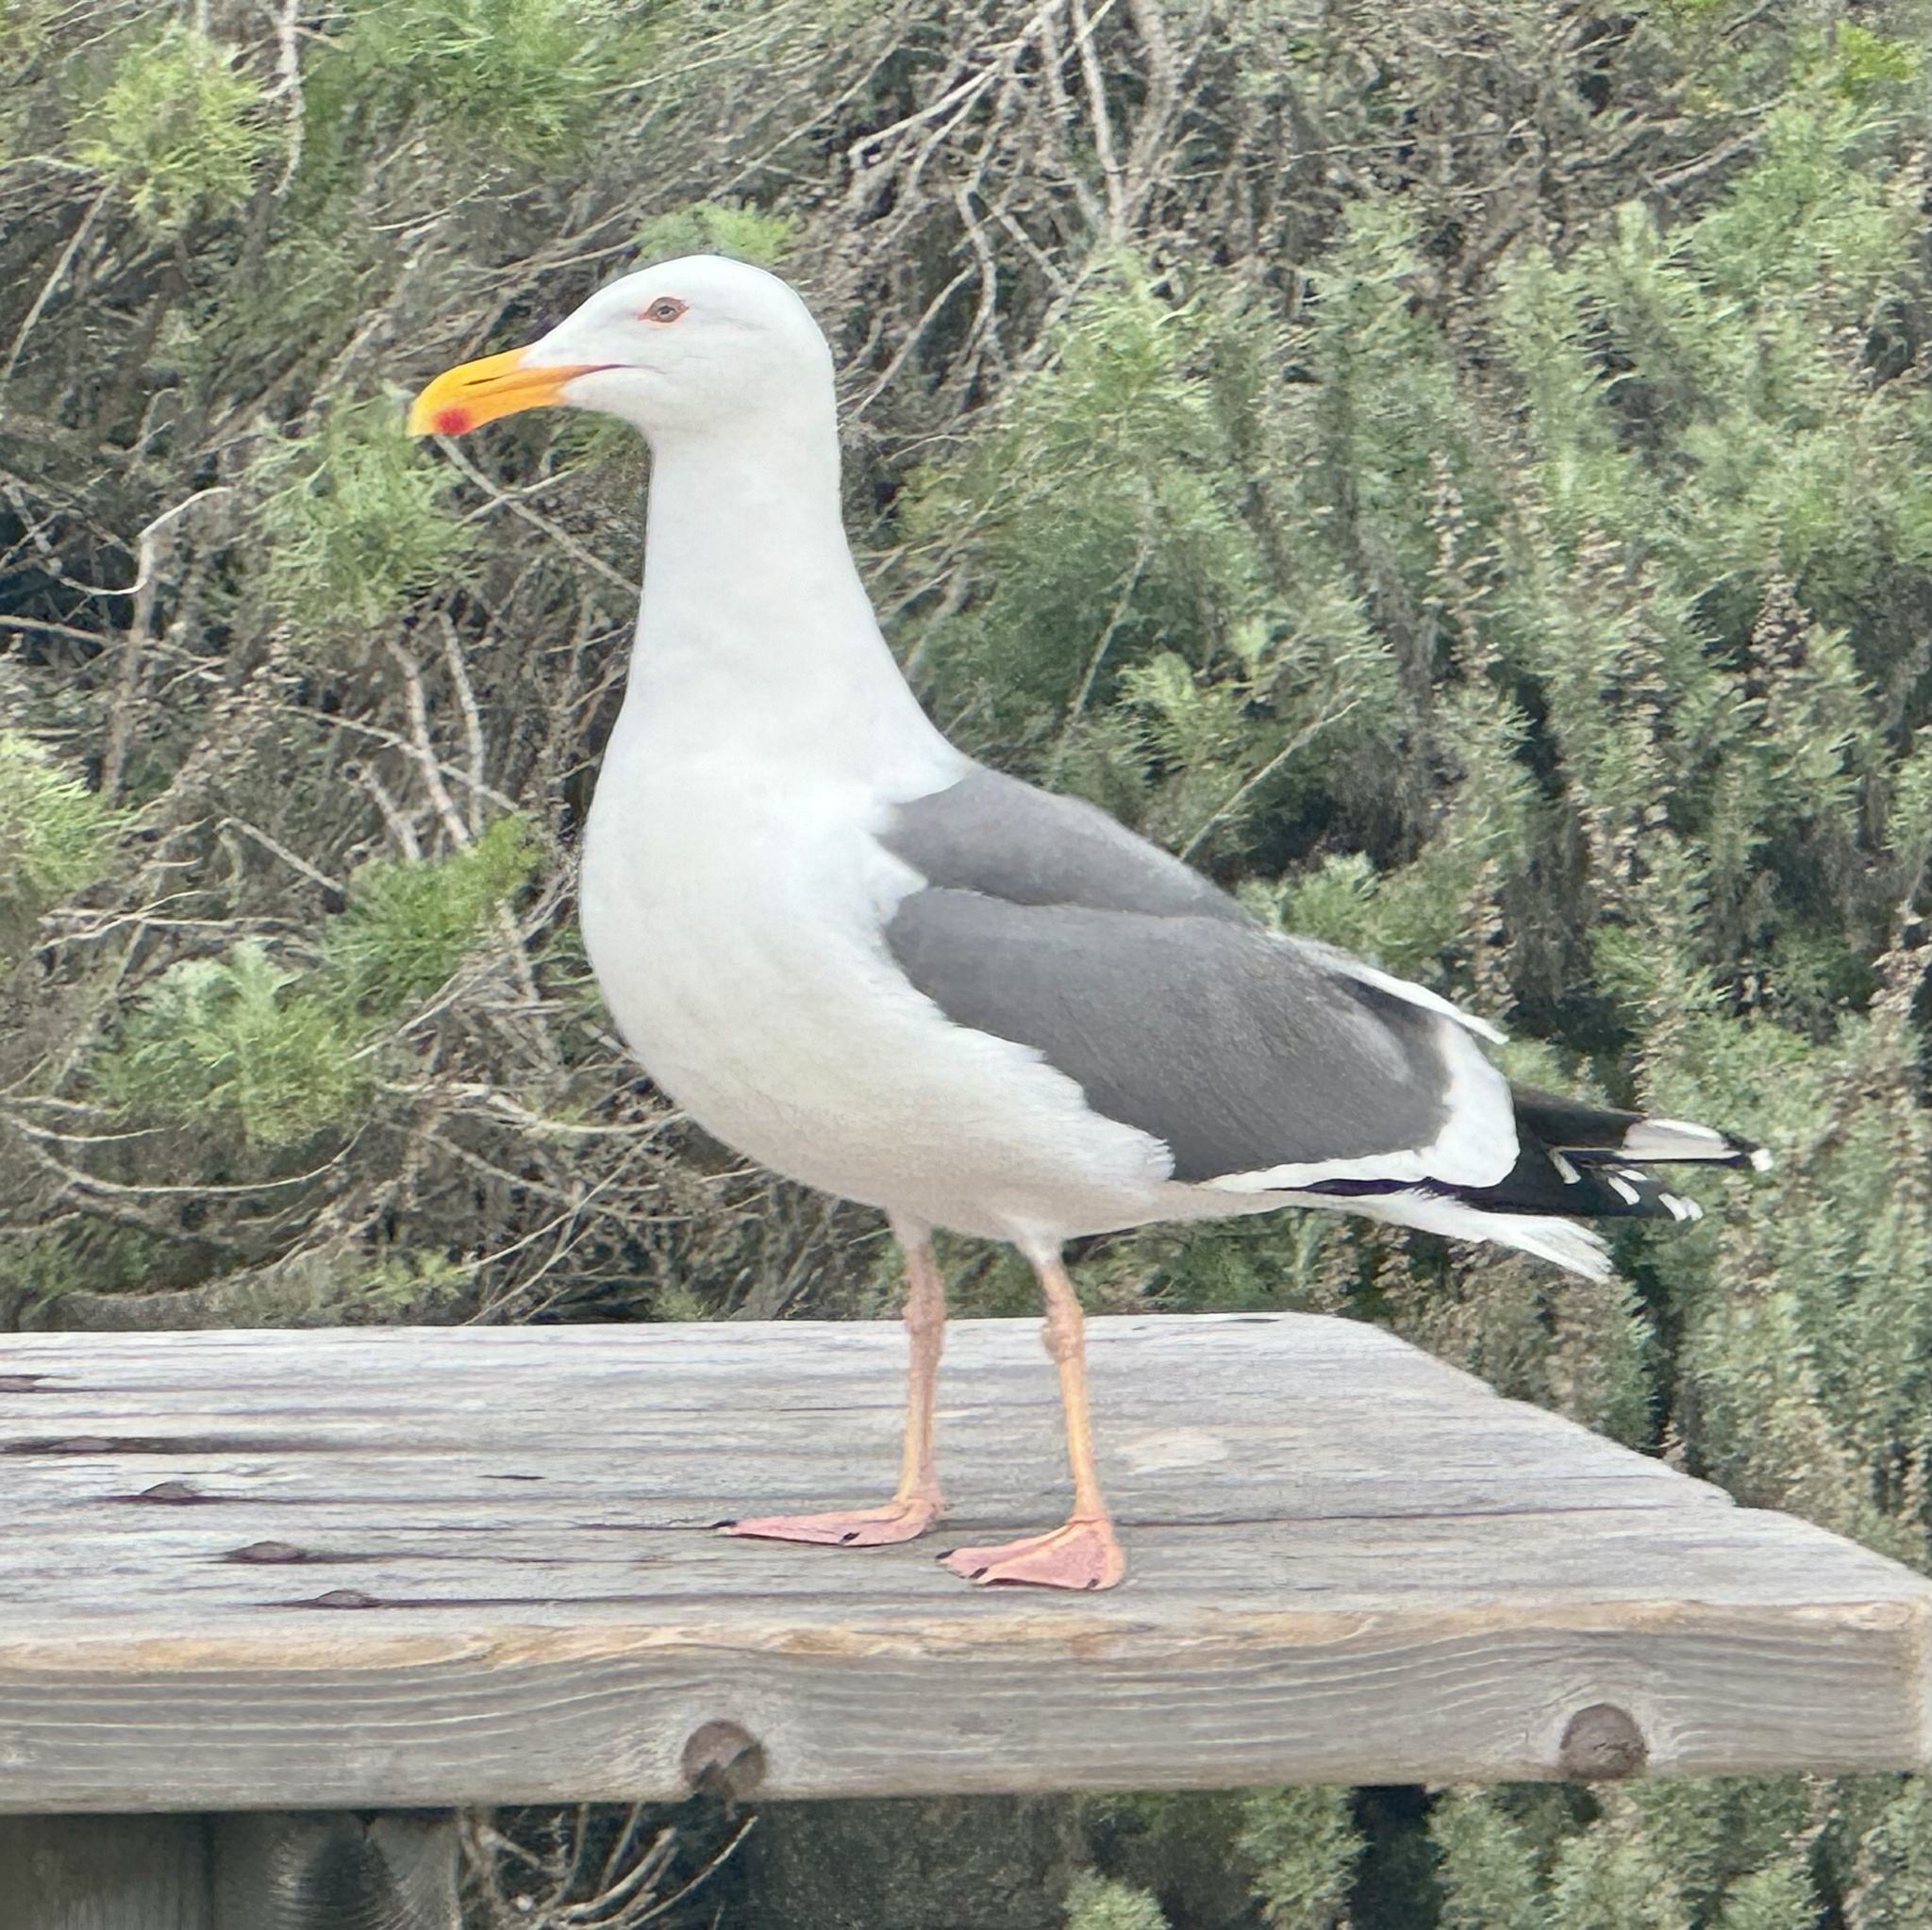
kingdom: Animalia
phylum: Chordata
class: Aves
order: Charadriiformes
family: Laridae
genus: Larus
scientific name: Larus occidentalis
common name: Western gull
